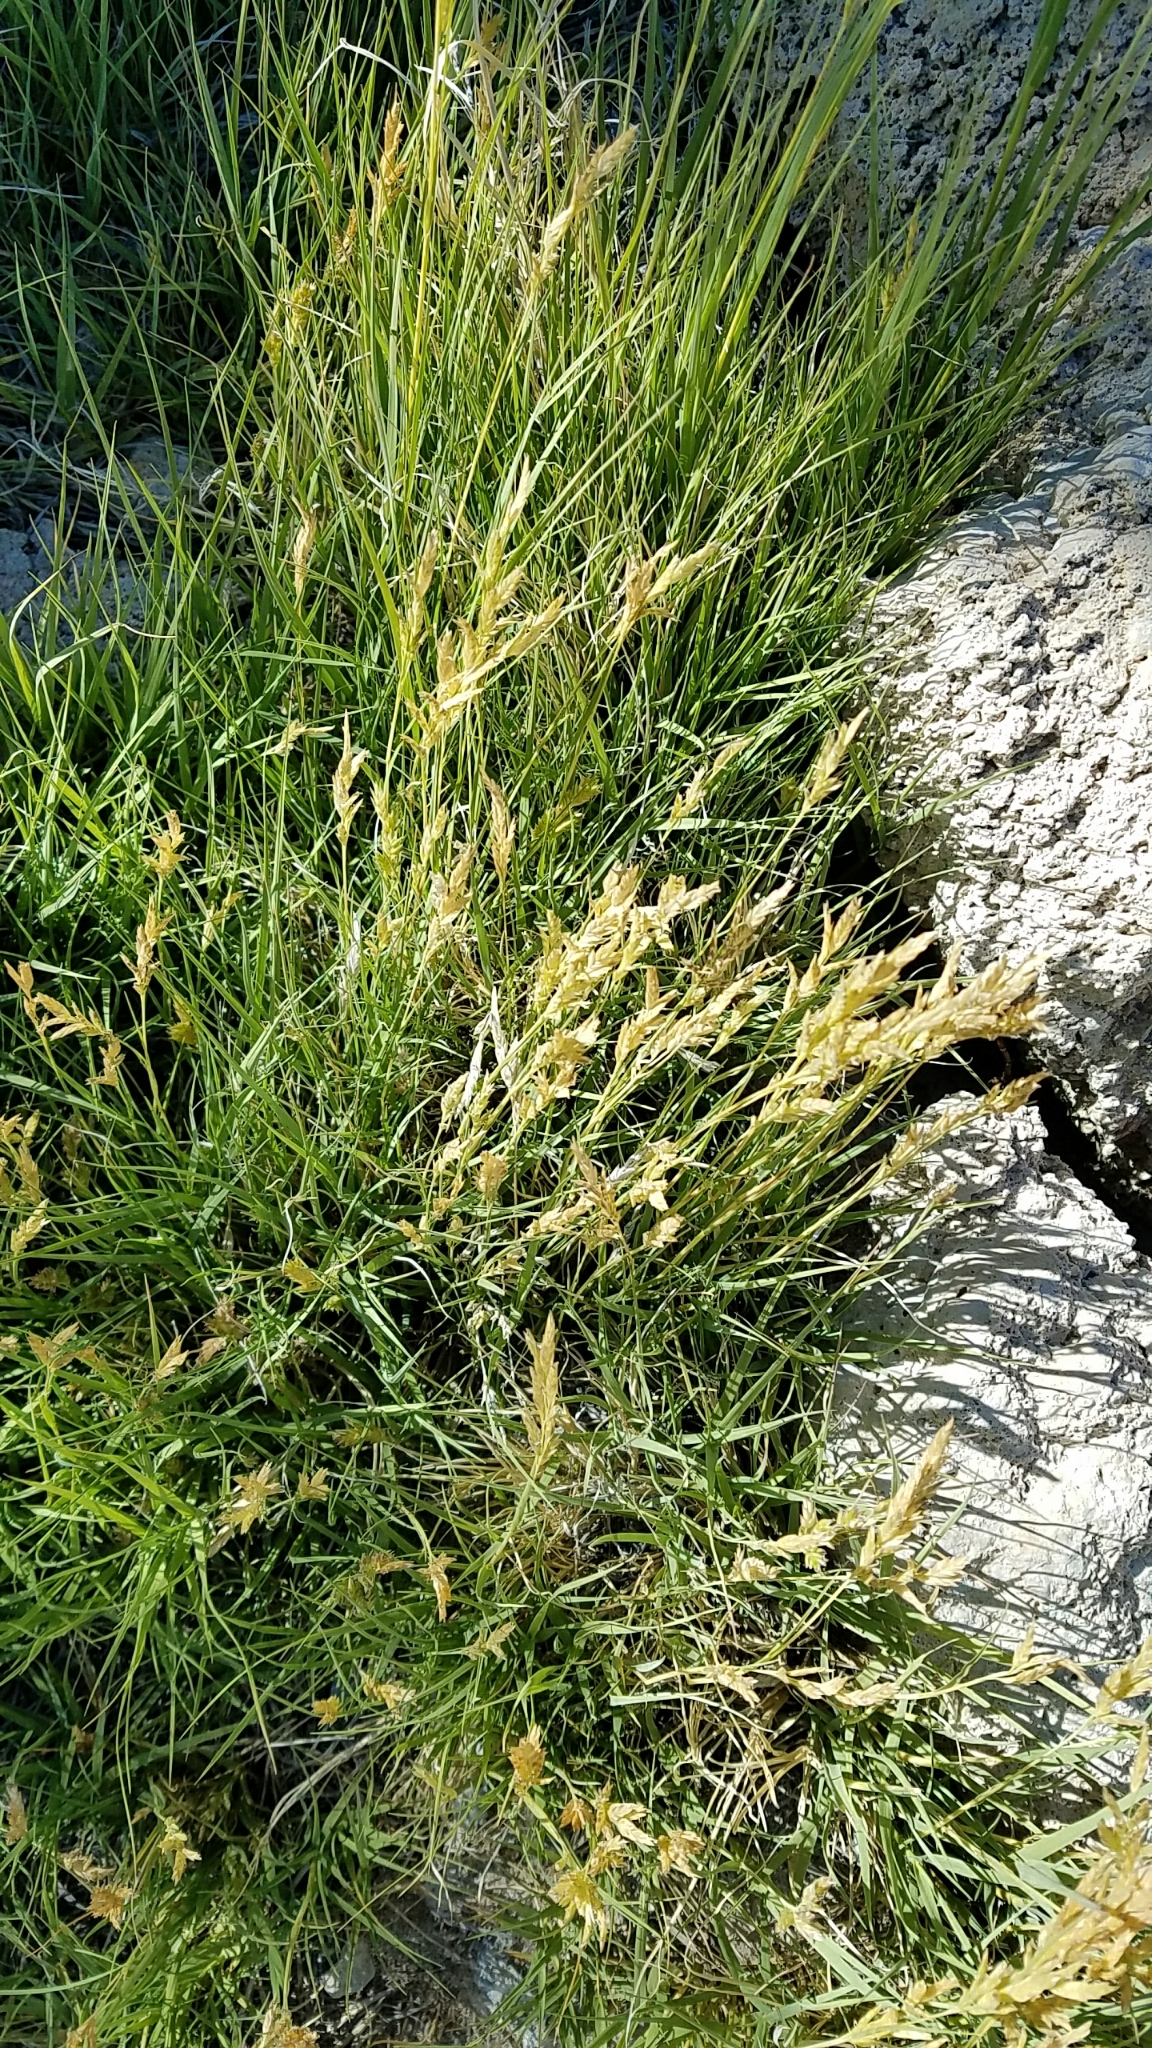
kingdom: Plantae
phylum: Tracheophyta
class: Liliopsida
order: Poales
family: Poaceae
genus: Distichlis
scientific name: Distichlis spicata
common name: Saltgrass
